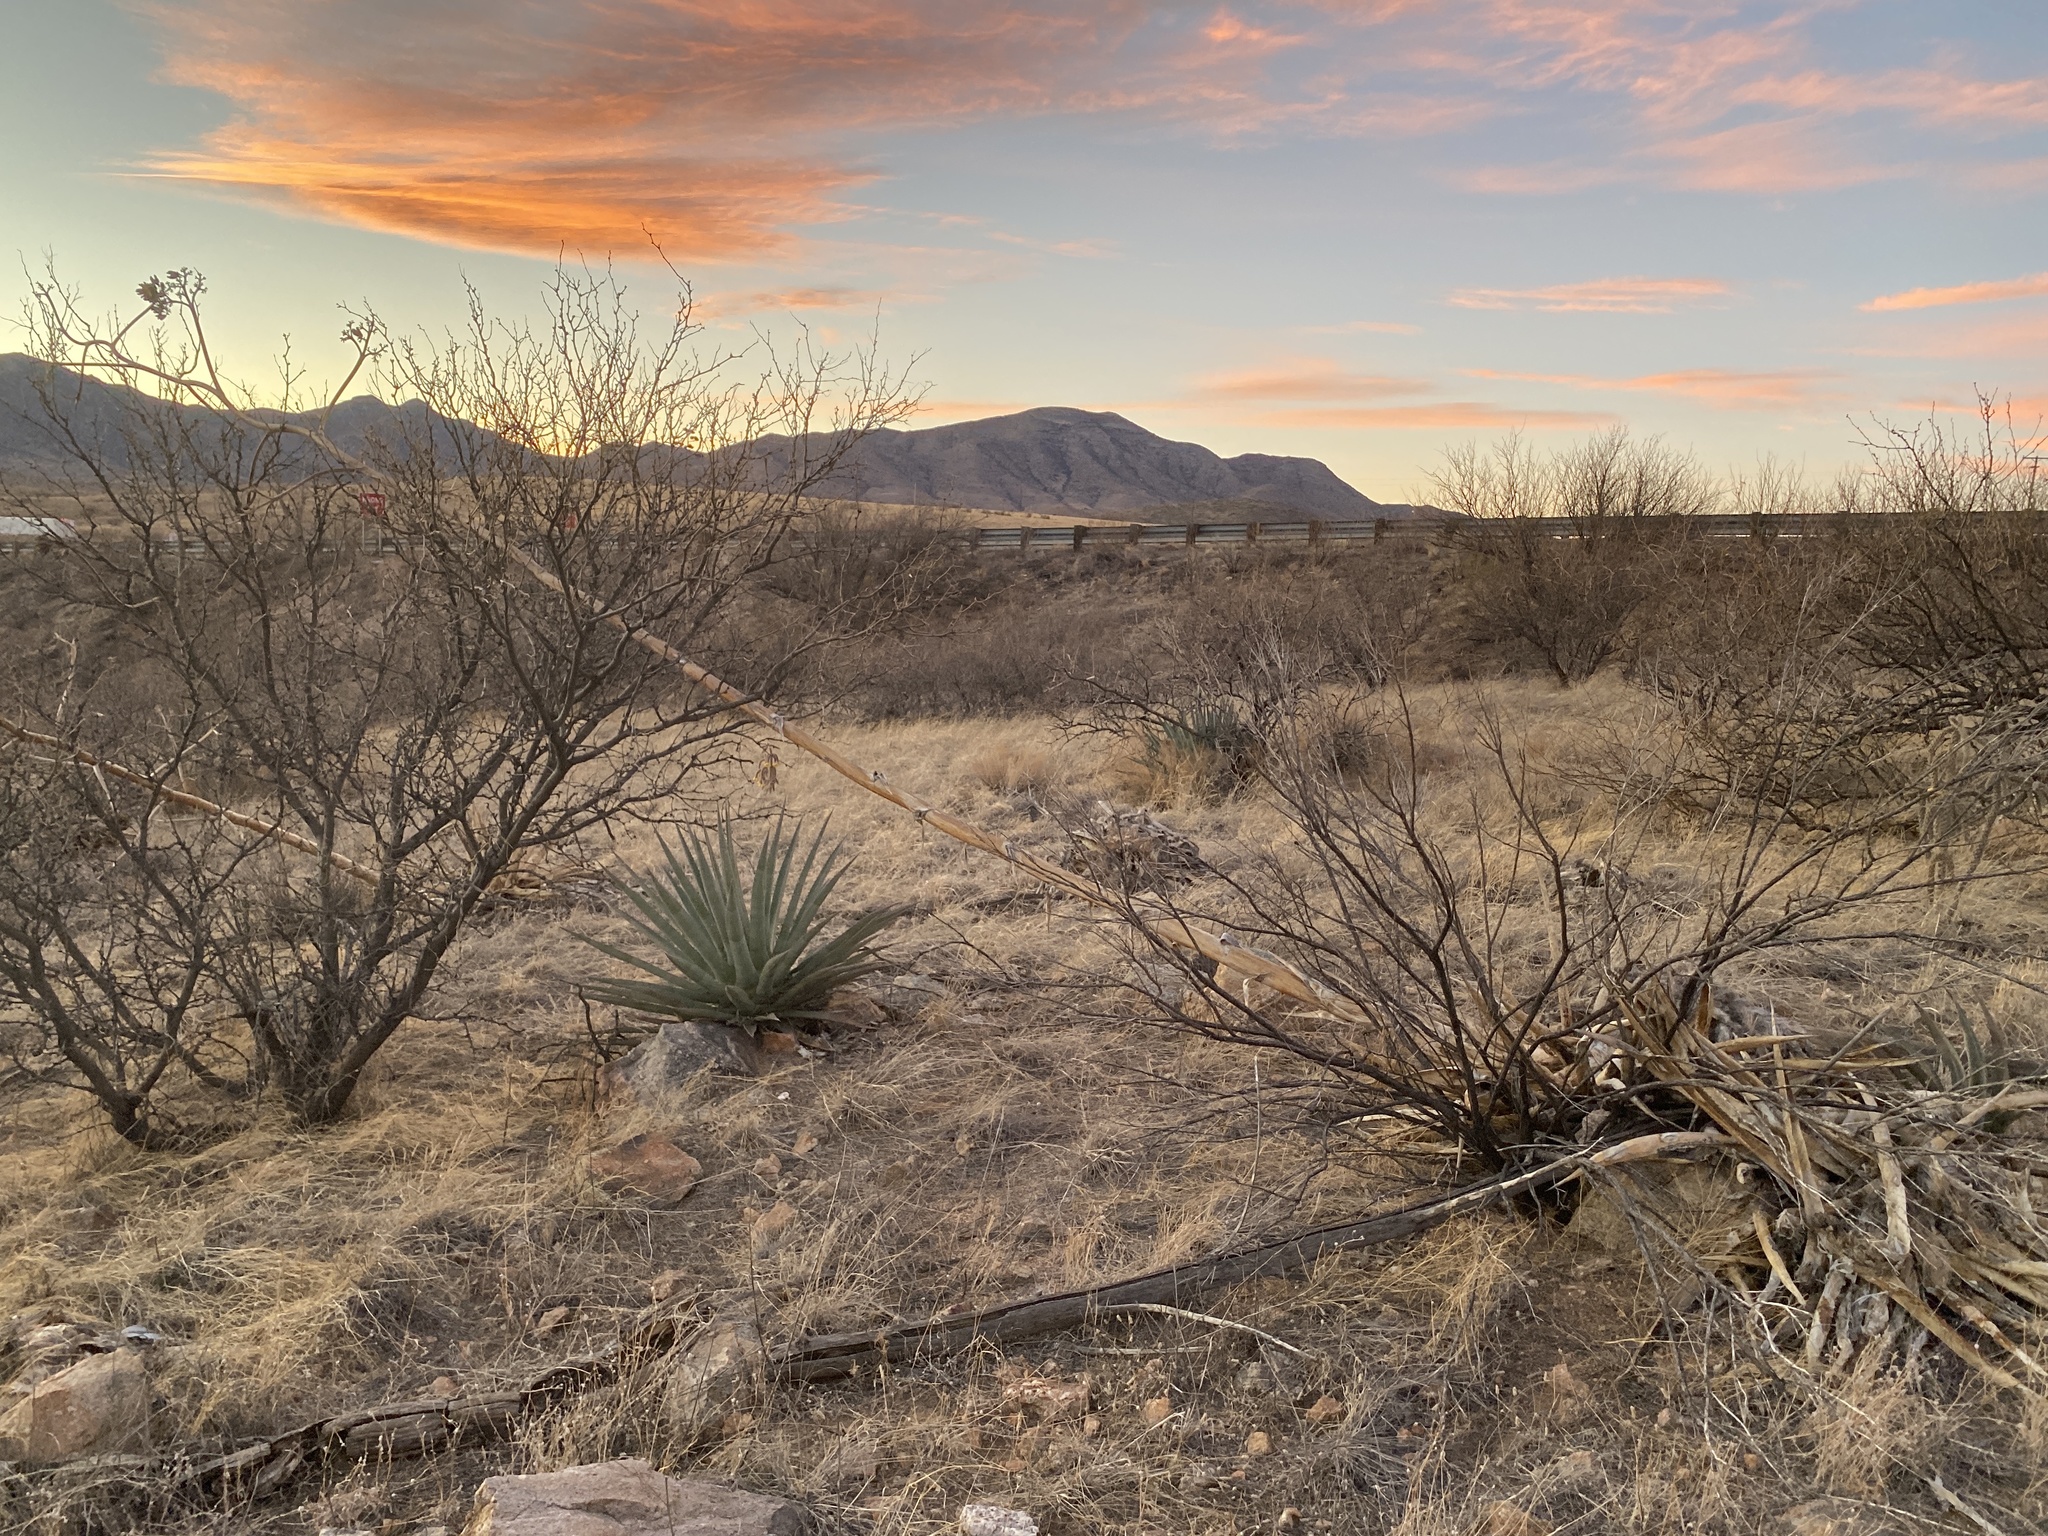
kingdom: Plantae
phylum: Tracheophyta
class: Liliopsida
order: Asparagales
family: Asparagaceae
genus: Agave
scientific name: Agave palmeri
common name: Palmer agave
